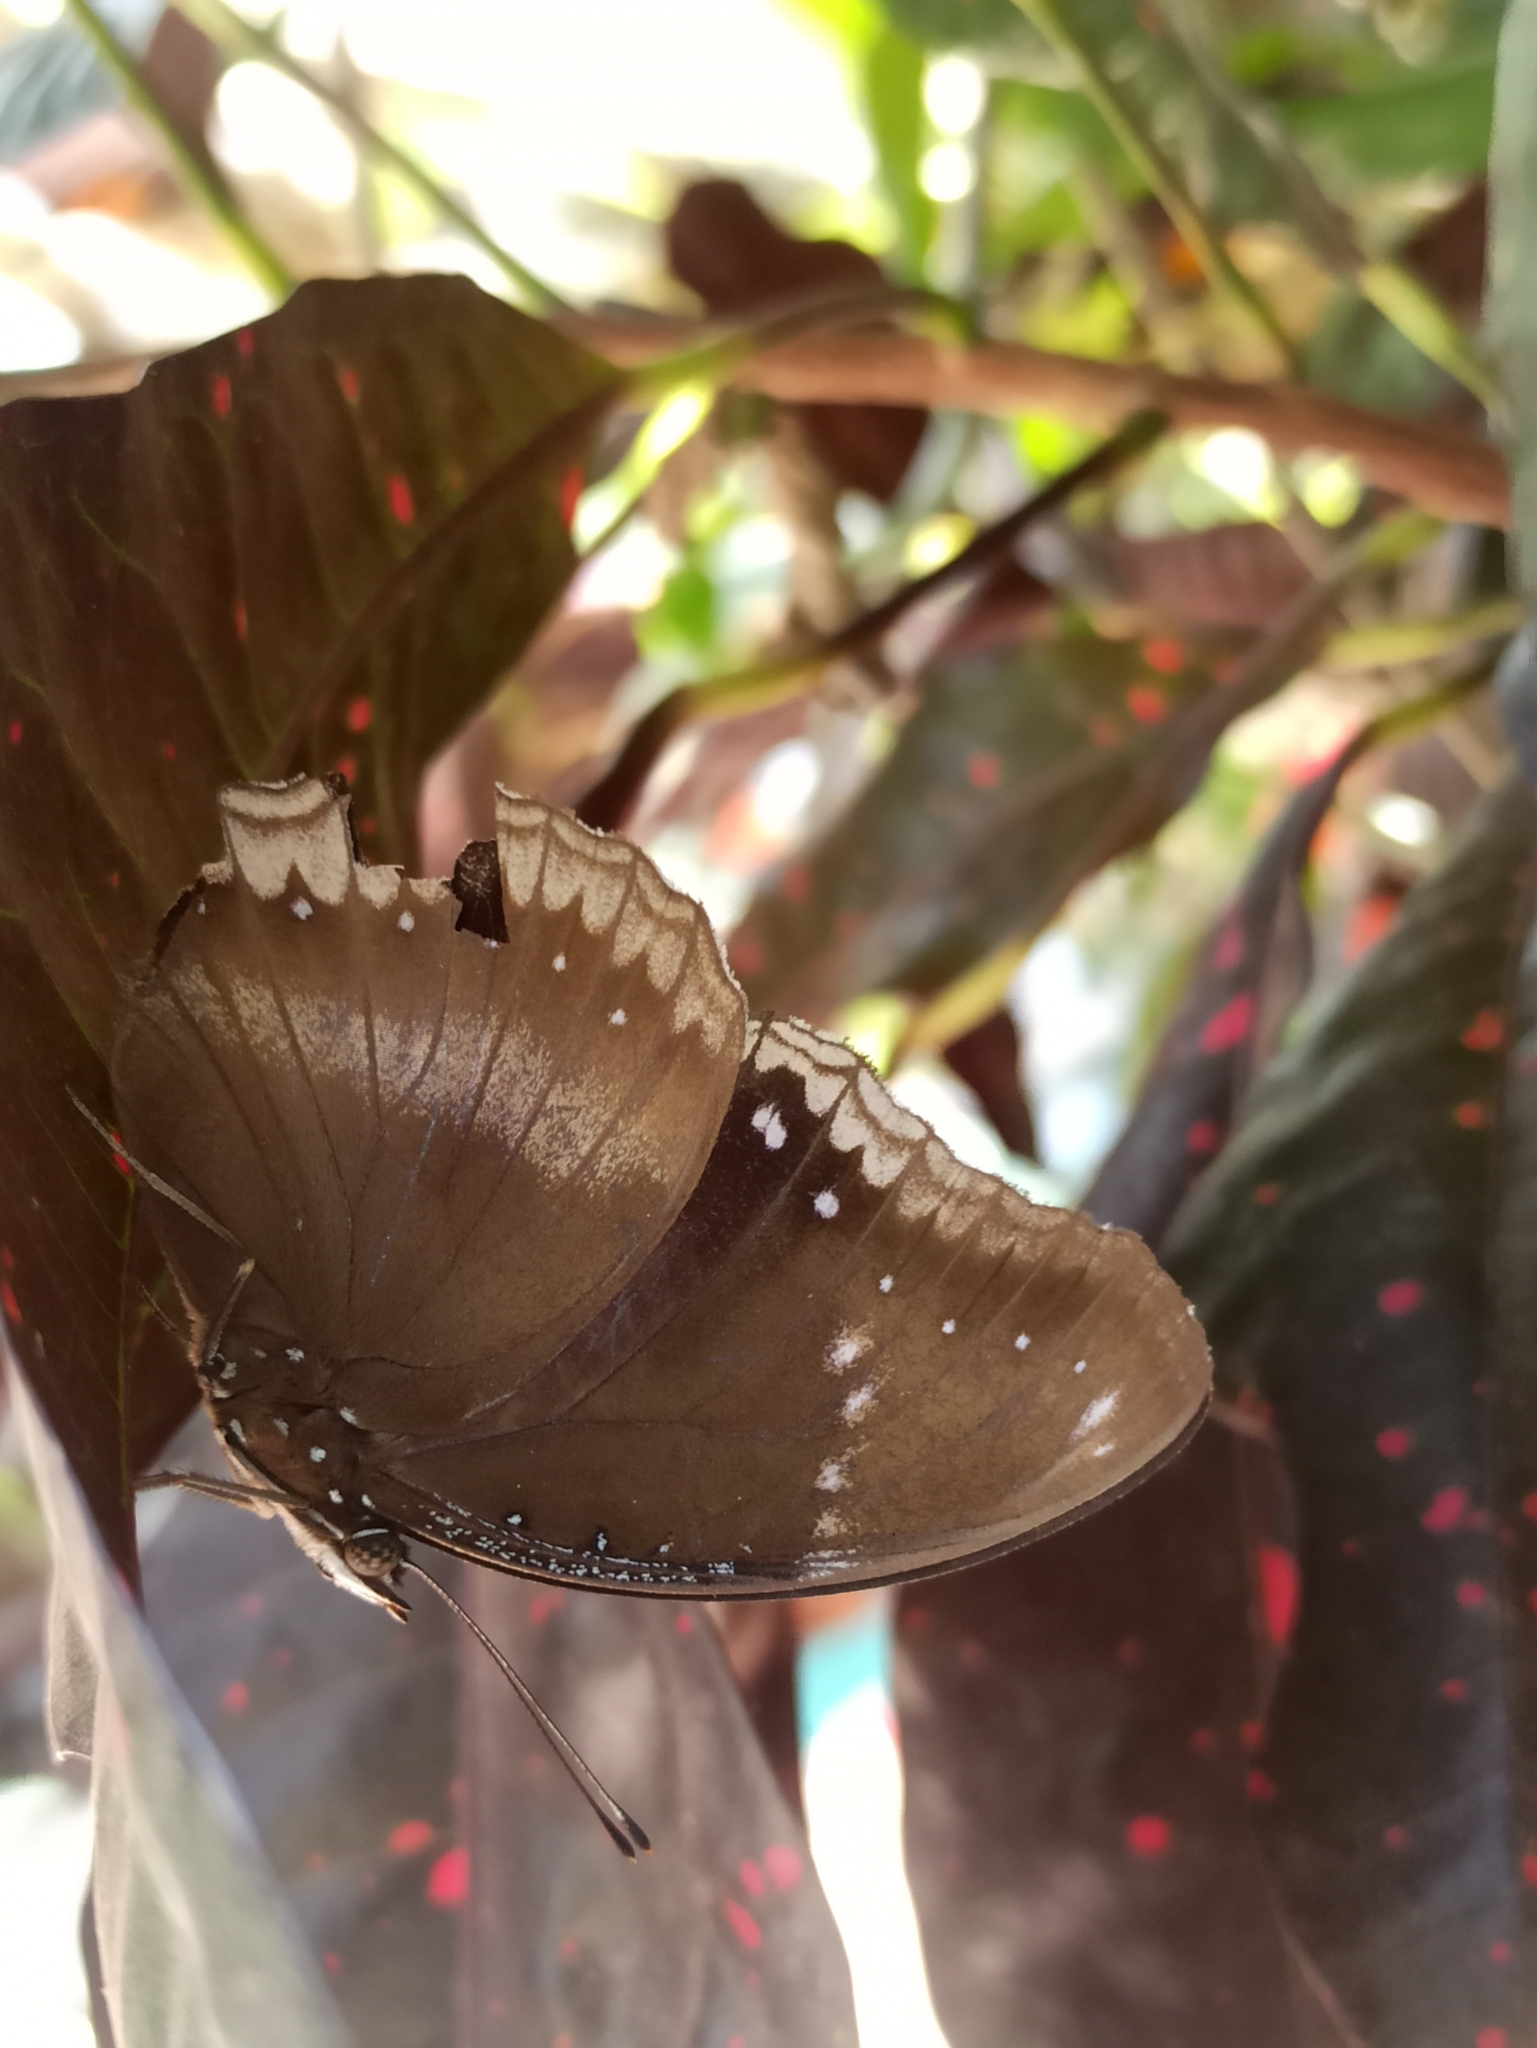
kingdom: Animalia
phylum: Arthropoda
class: Insecta
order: Lepidoptera
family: Nymphalidae
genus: Hypolimnas
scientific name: Hypolimnas bolina
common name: Great eggfly
